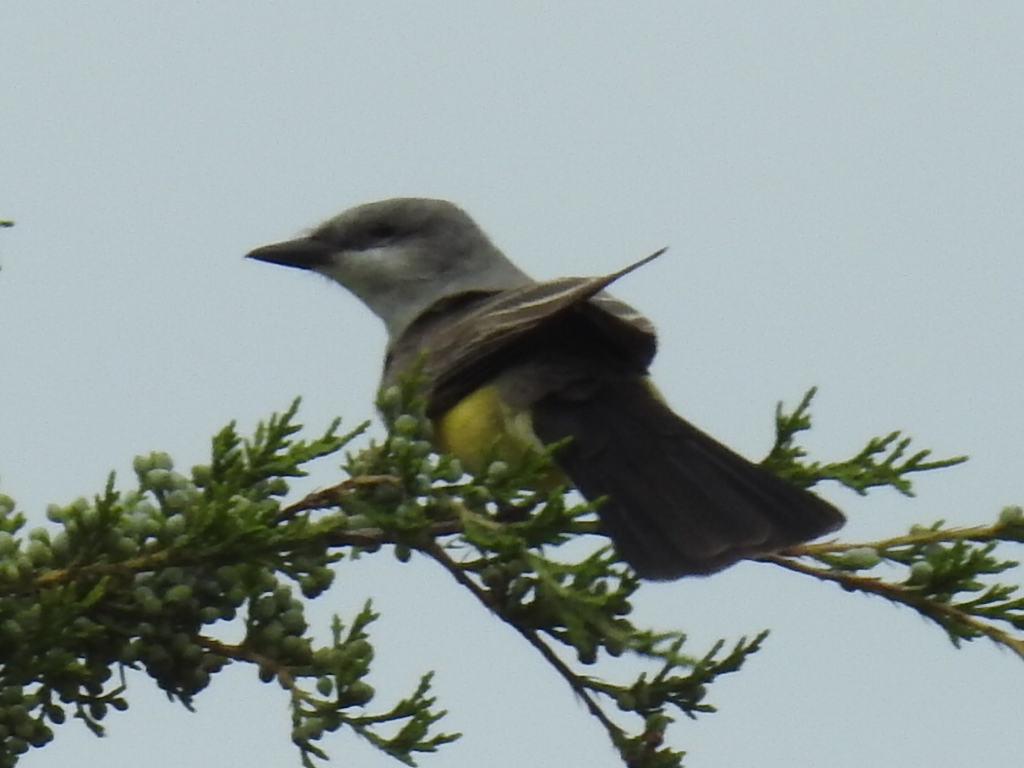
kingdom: Animalia
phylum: Chordata
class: Aves
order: Passeriformes
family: Tyrannidae
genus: Tyrannus
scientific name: Tyrannus verticalis
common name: Western kingbird
